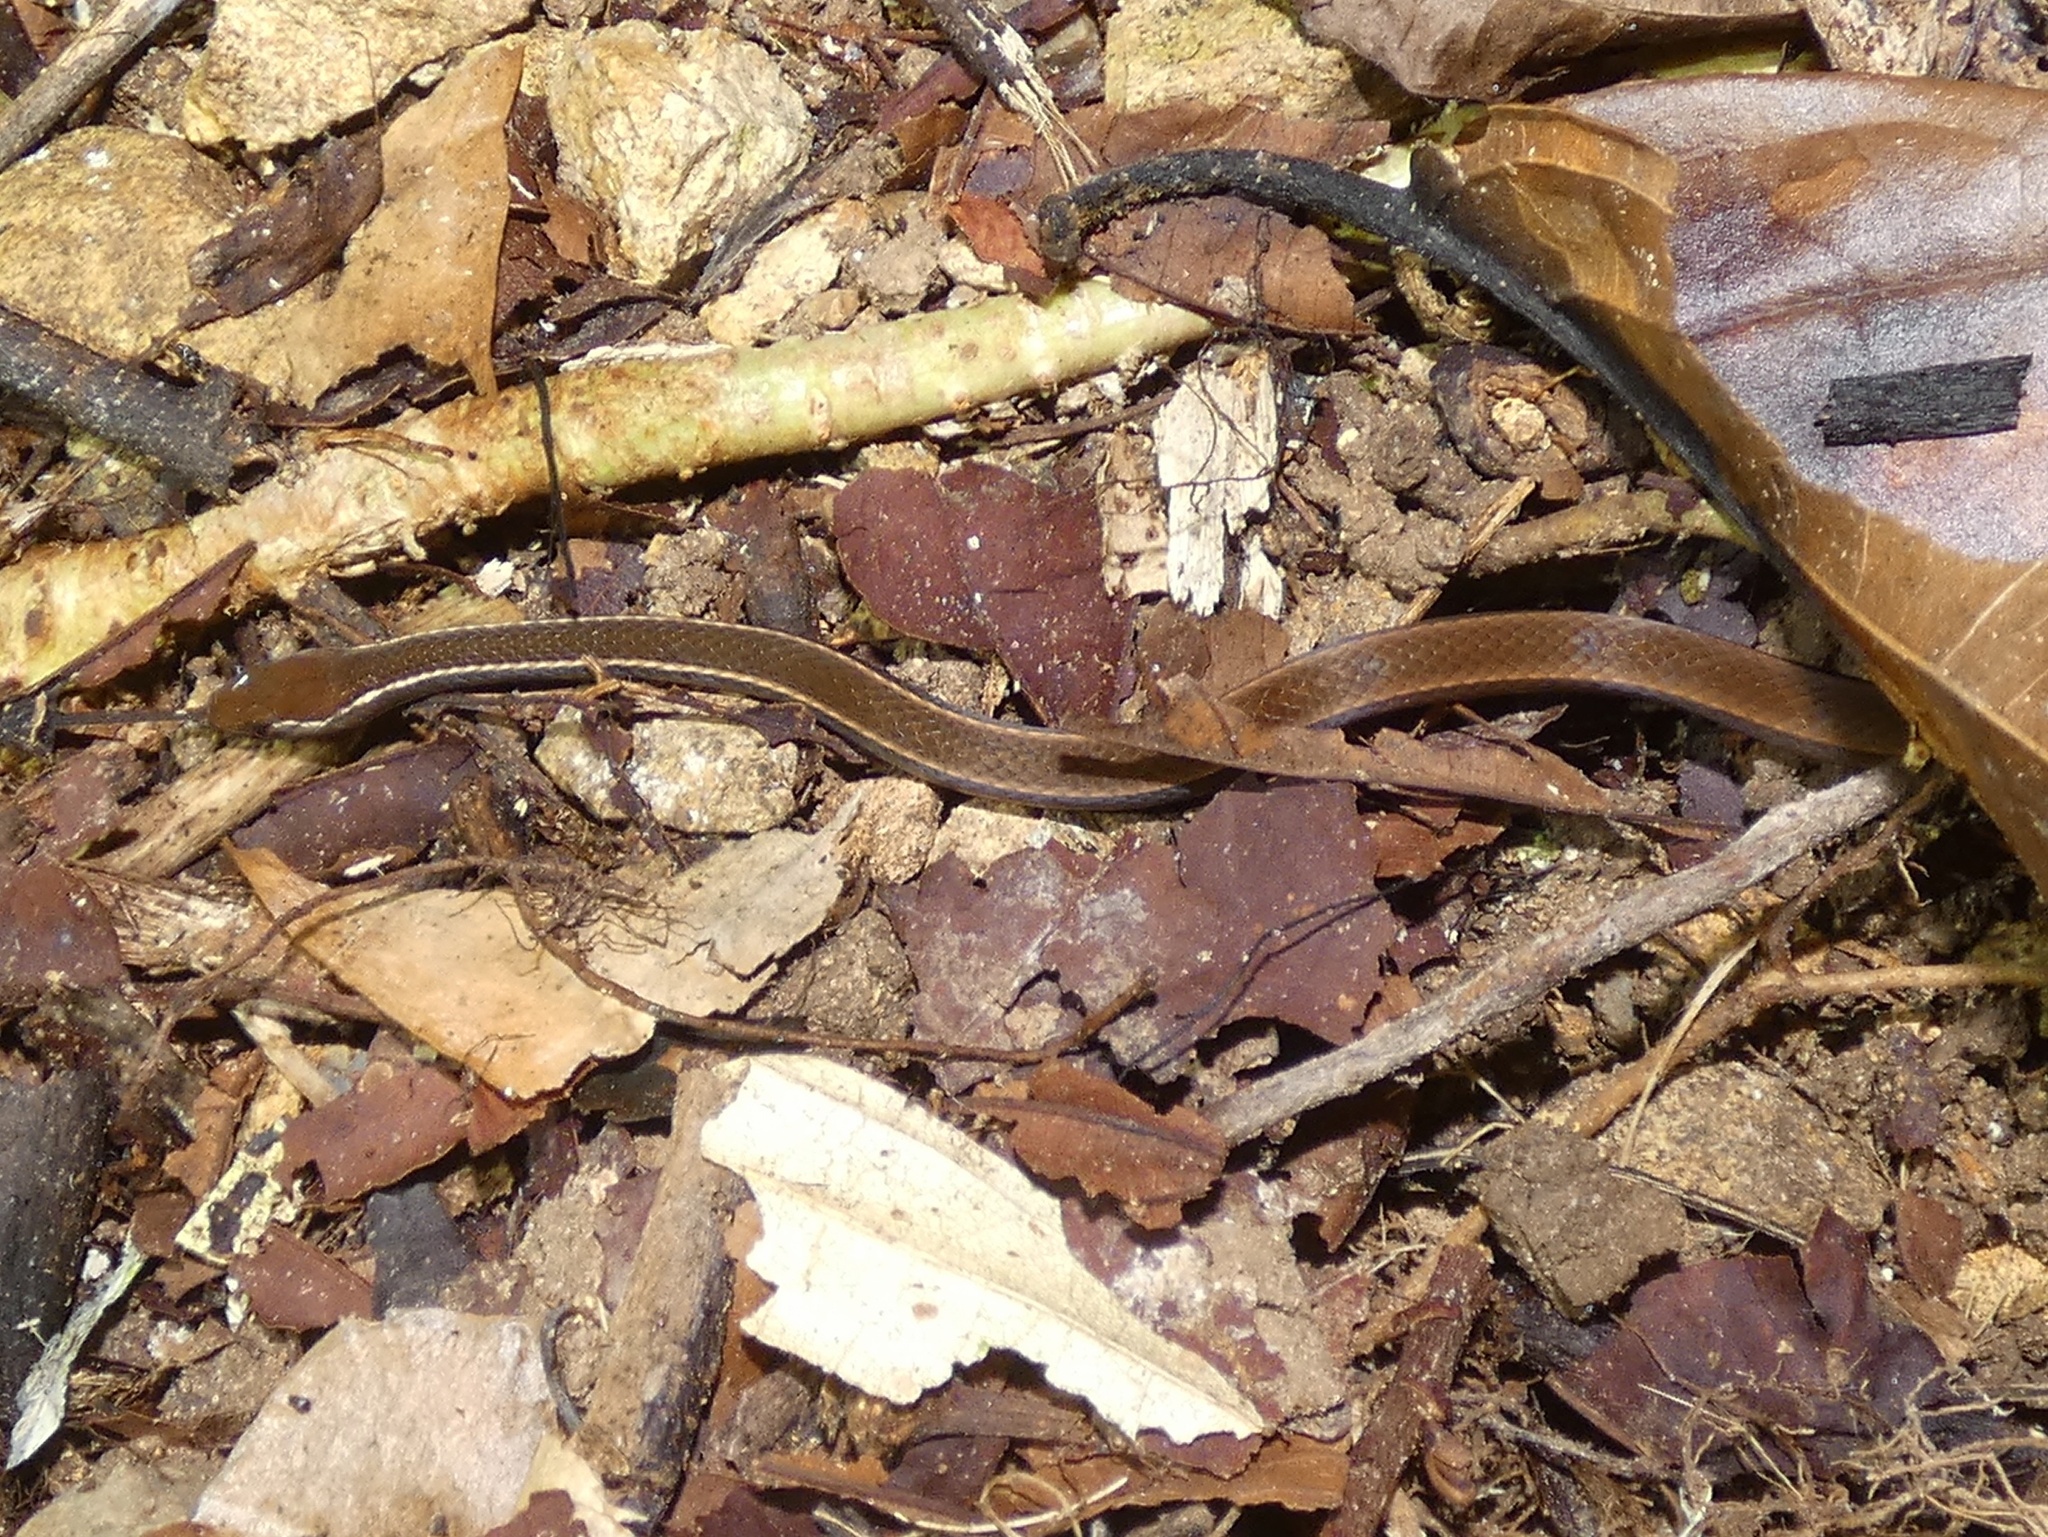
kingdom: Animalia
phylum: Chordata
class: Squamata
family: Colubridae
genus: Rhadinaea
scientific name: Rhadinaea decorata
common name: Adorned graceful brown snake
